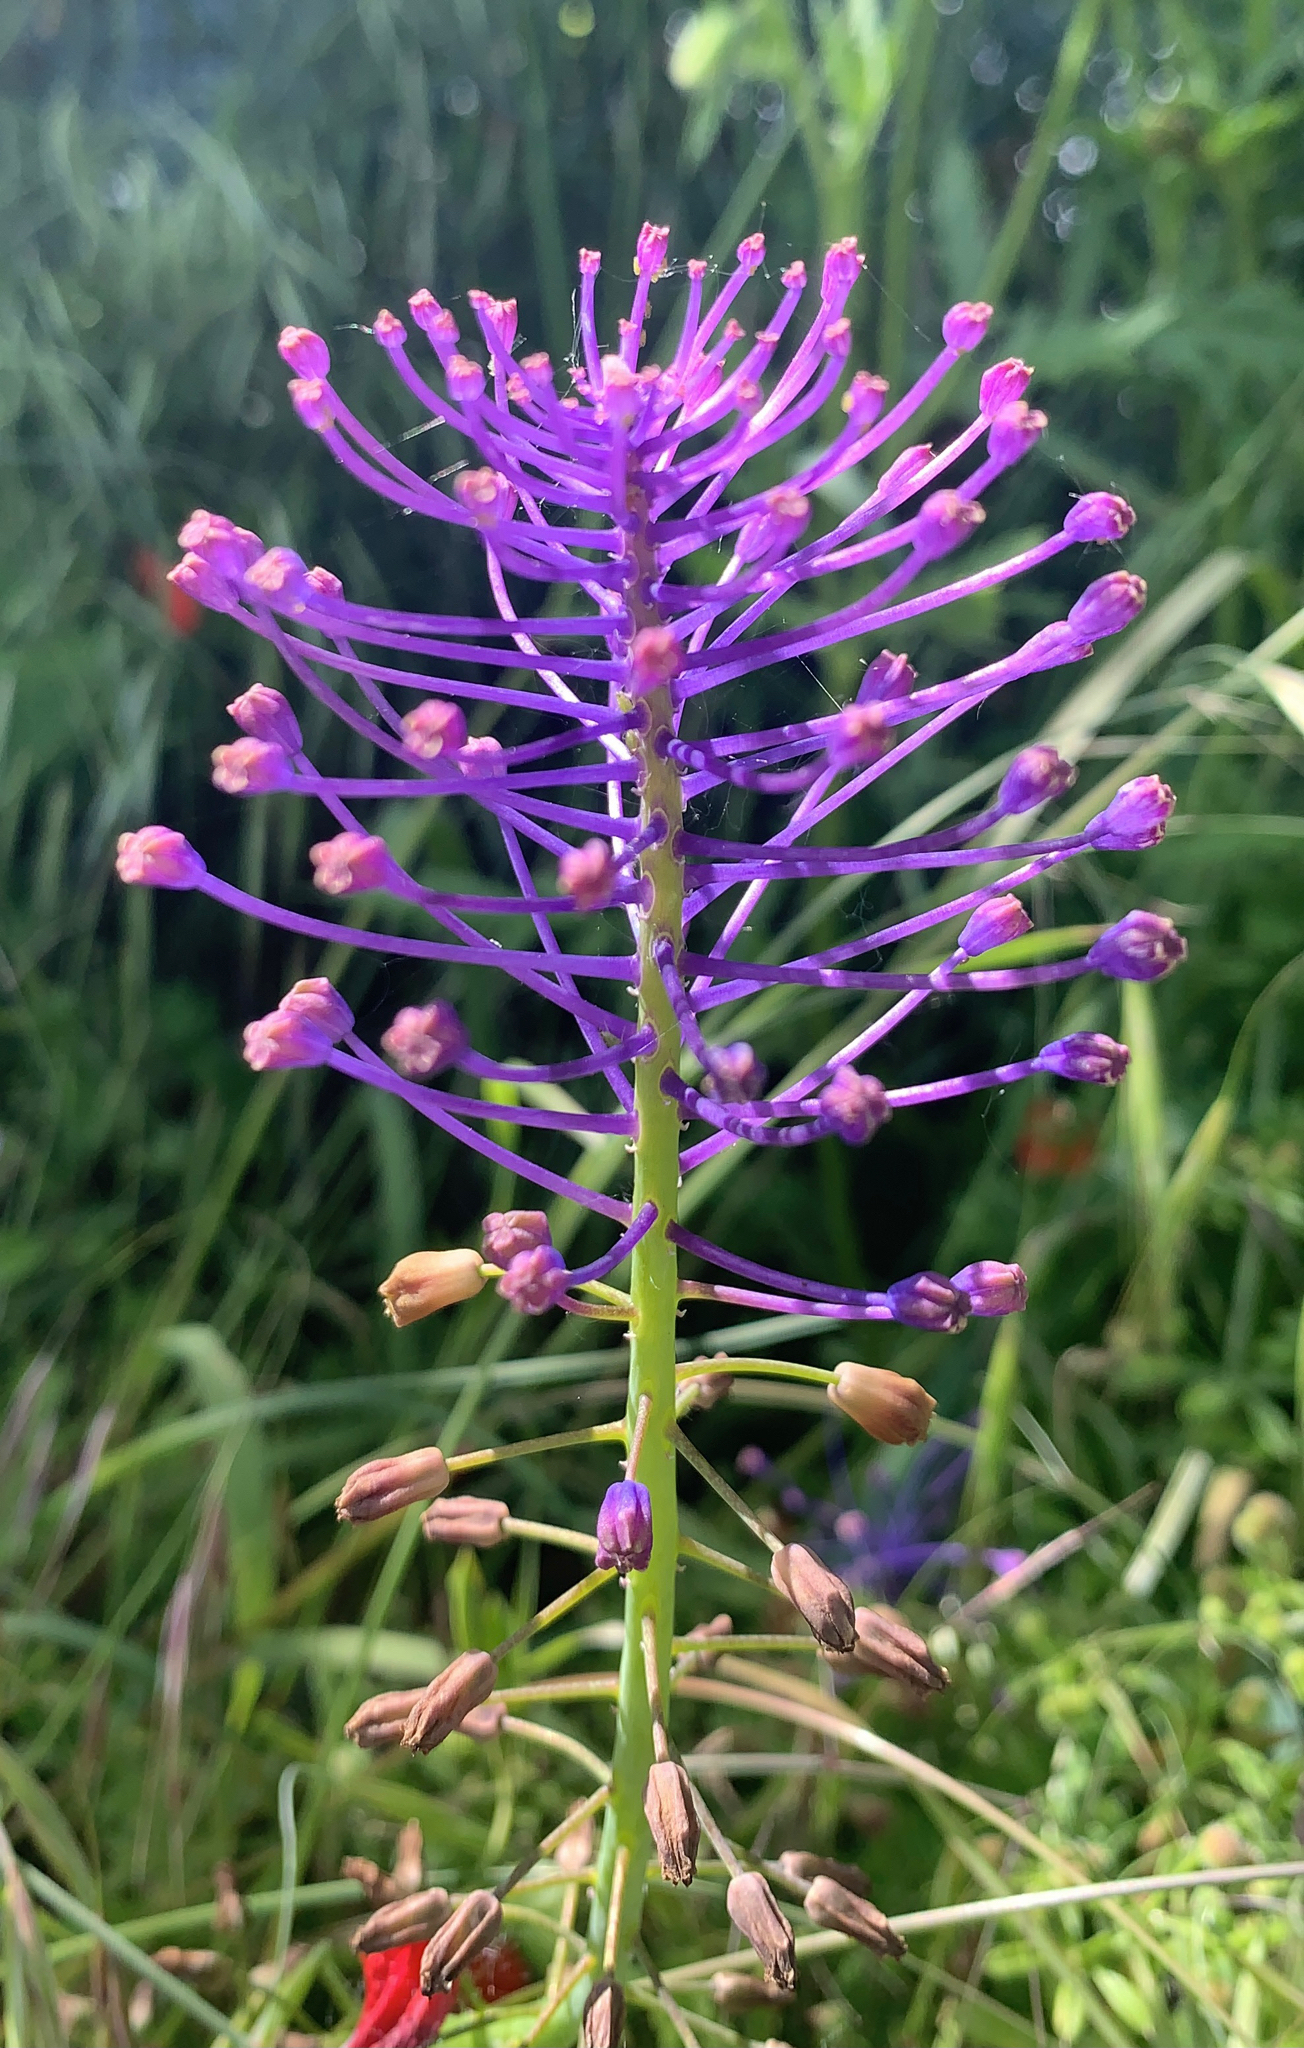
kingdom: Plantae
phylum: Tracheophyta
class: Liliopsida
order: Asparagales
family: Asparagaceae
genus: Muscari
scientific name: Muscari comosum
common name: Tassel hyacinth
